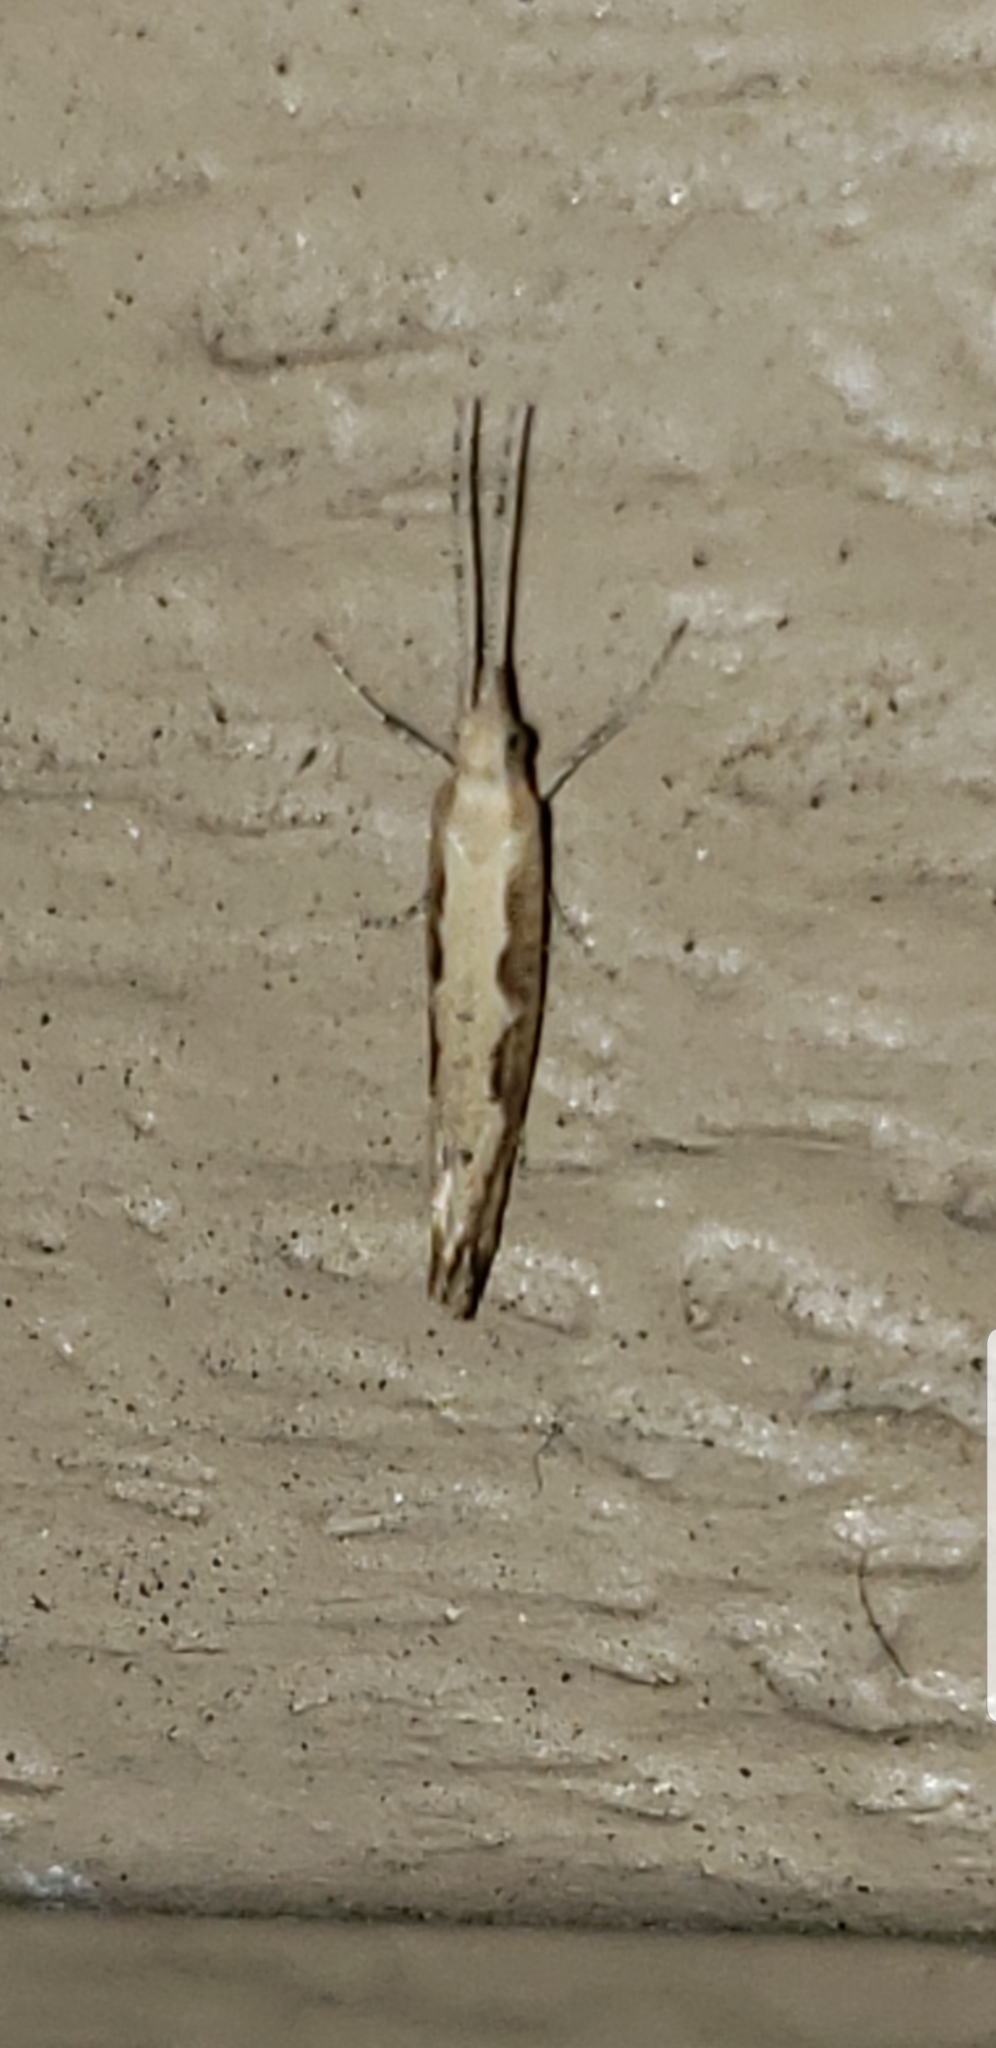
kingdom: Animalia
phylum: Arthropoda
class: Insecta
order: Lepidoptera
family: Plutellidae
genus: Plutella
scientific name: Plutella xylostella
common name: Diamond-back moth
